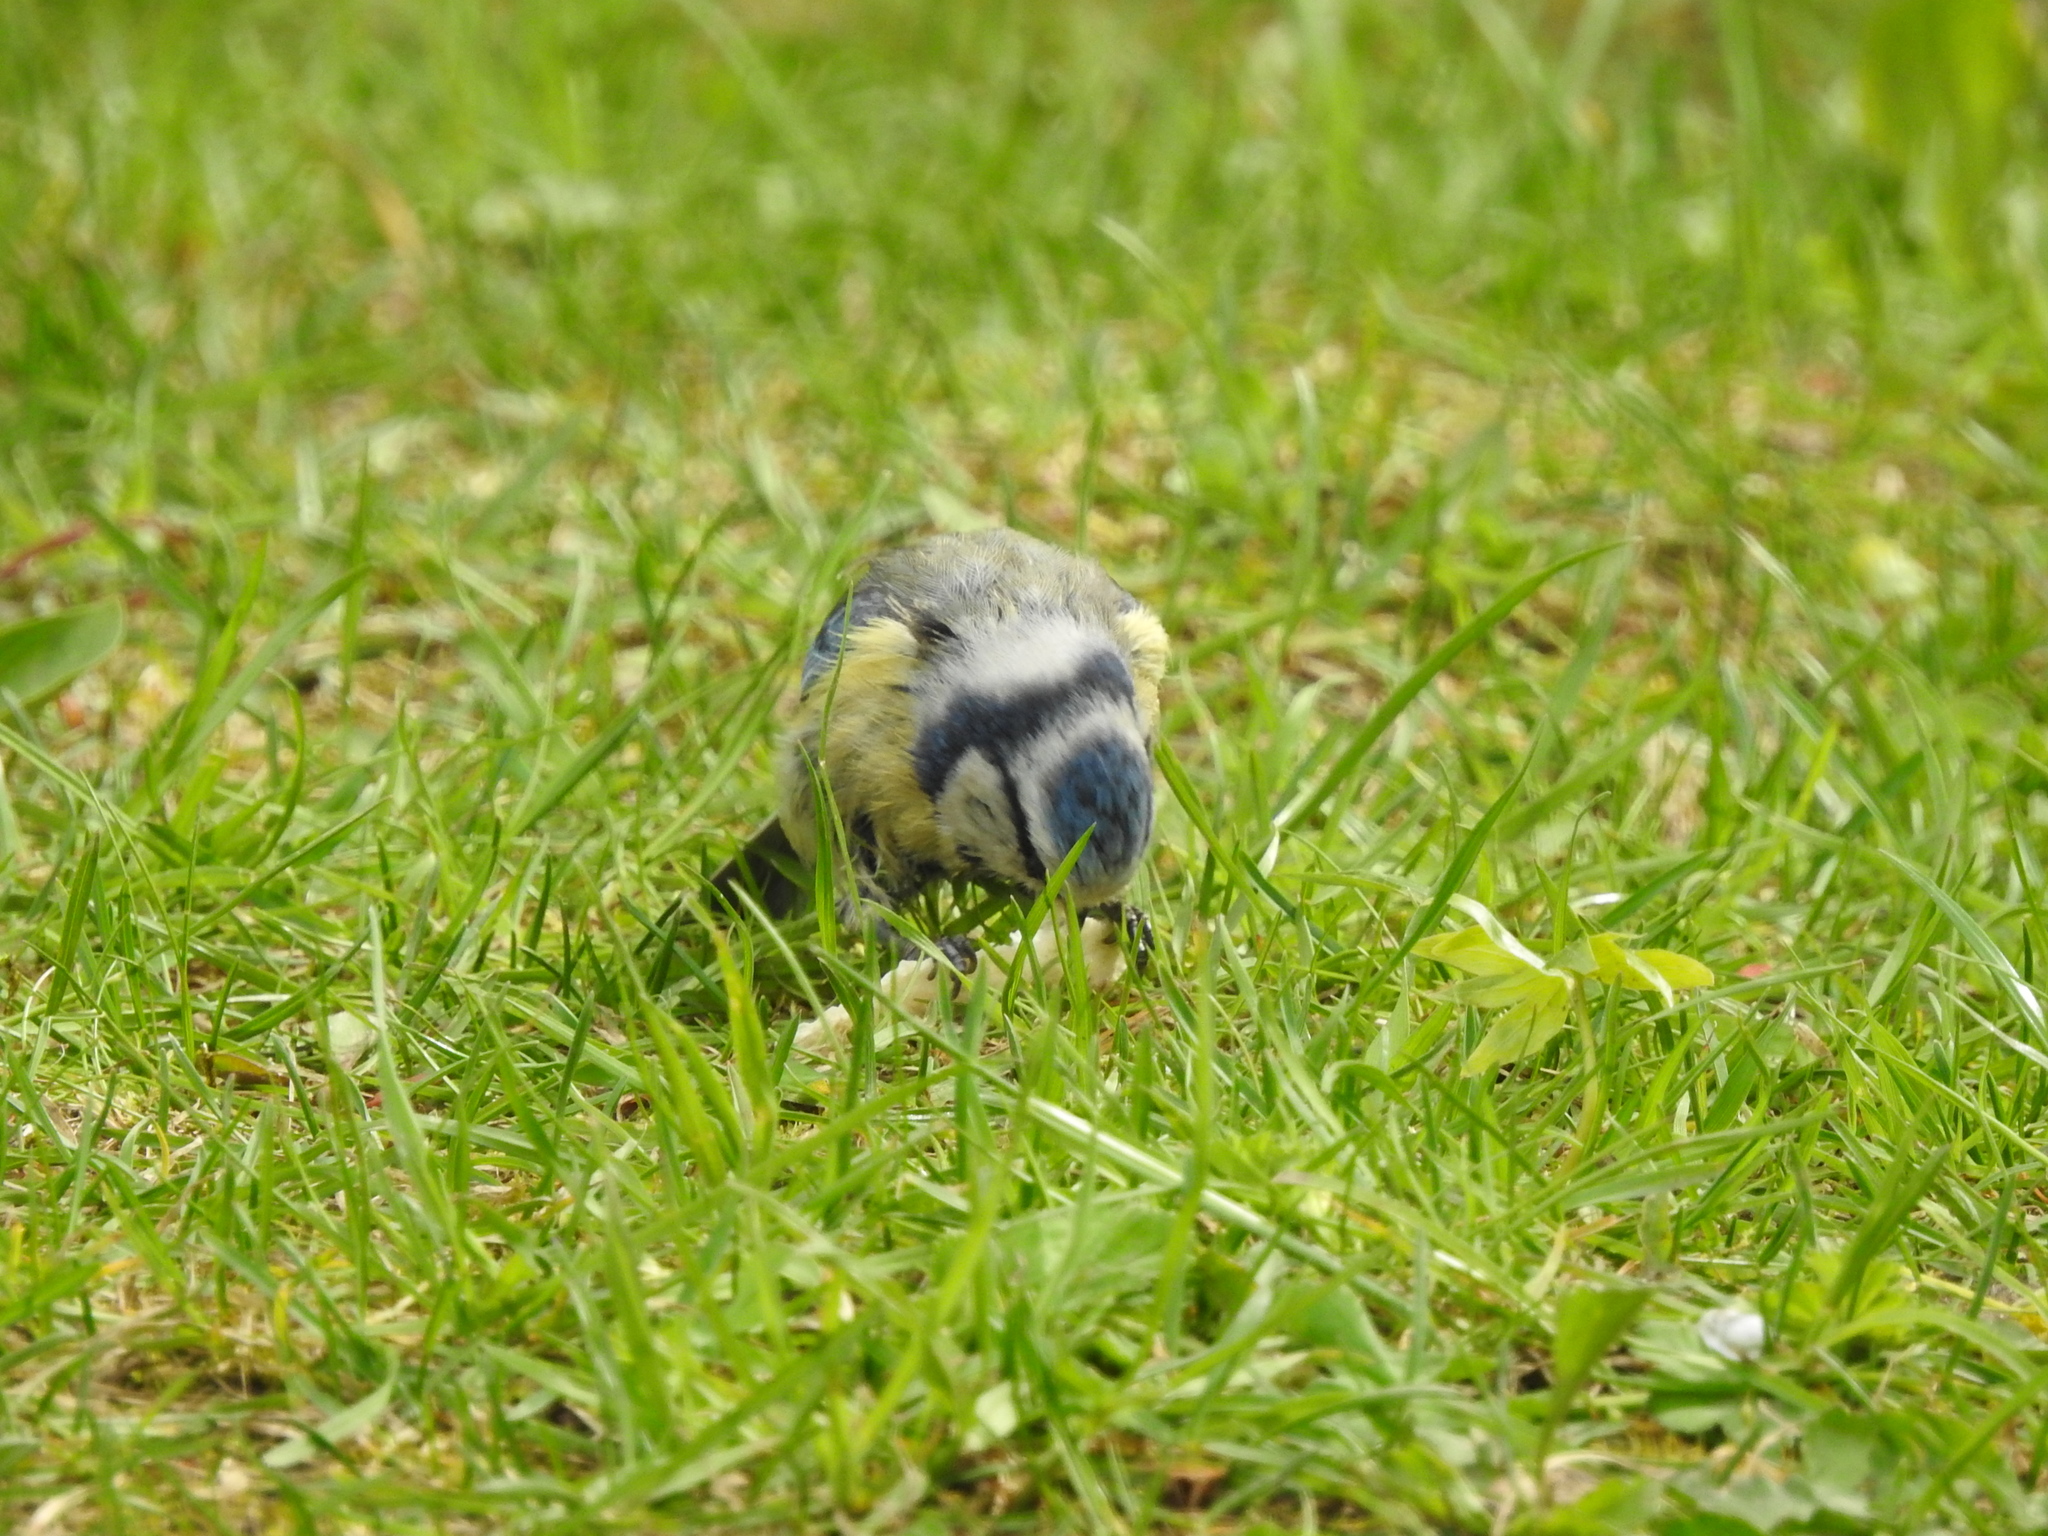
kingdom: Animalia
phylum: Chordata
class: Aves
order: Passeriformes
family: Paridae
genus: Cyanistes
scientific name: Cyanistes caeruleus
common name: Eurasian blue tit
